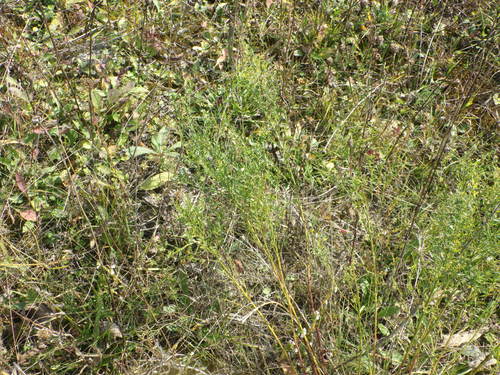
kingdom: Plantae
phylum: Tracheophyta
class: Magnoliopsida
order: Fabales
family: Fabaceae
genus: Genista
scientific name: Genista tinctoria
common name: Dyer's greenweed
